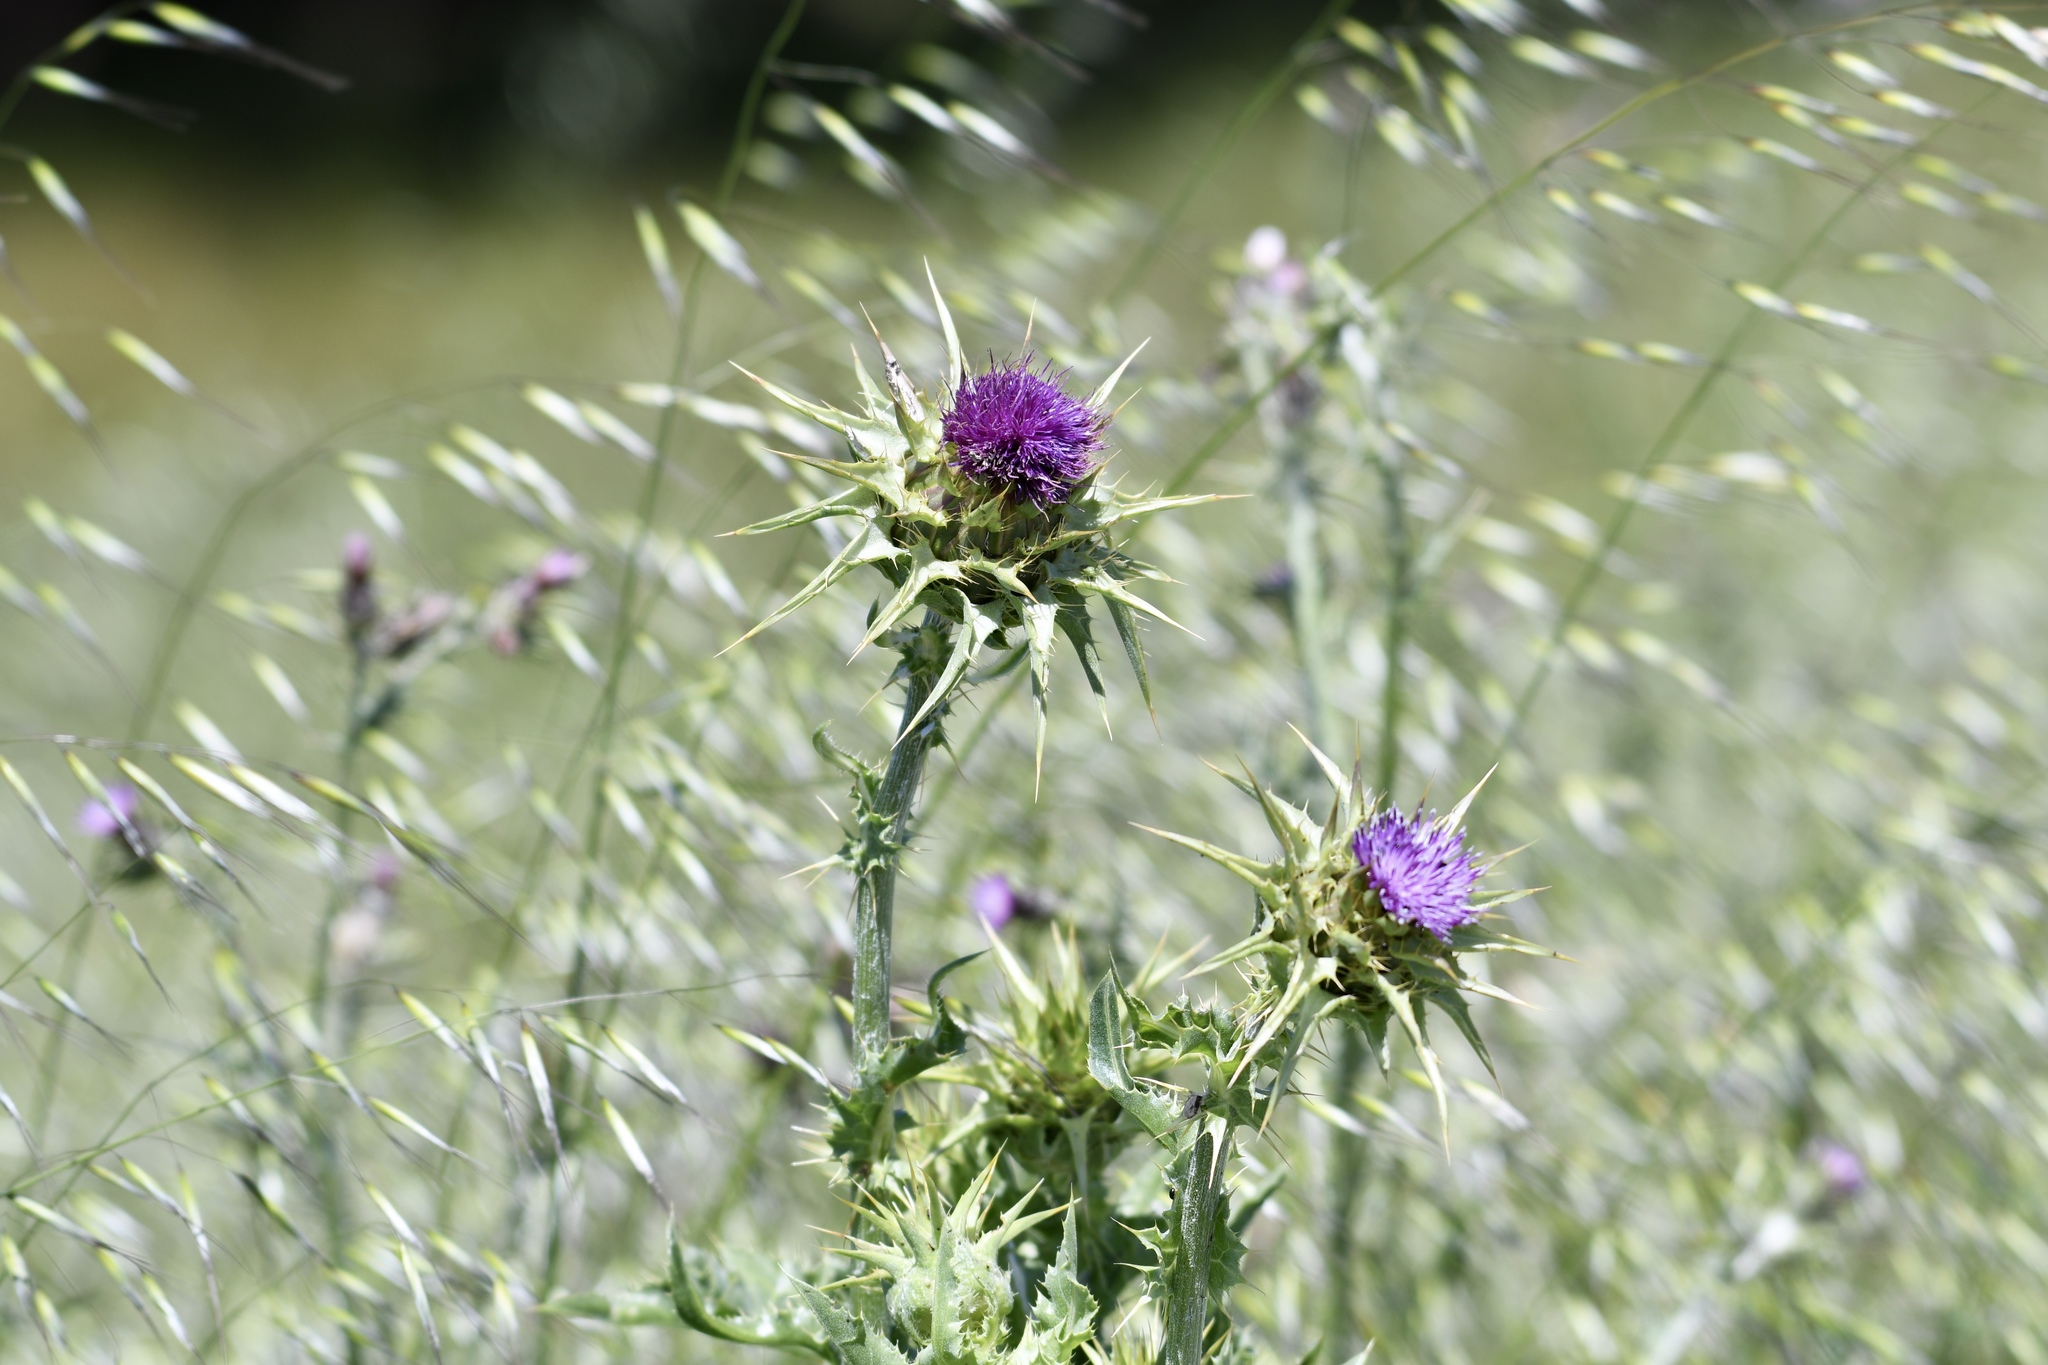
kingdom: Plantae
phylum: Tracheophyta
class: Magnoliopsida
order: Asterales
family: Asteraceae
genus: Silybum
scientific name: Silybum marianum
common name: Milk thistle
